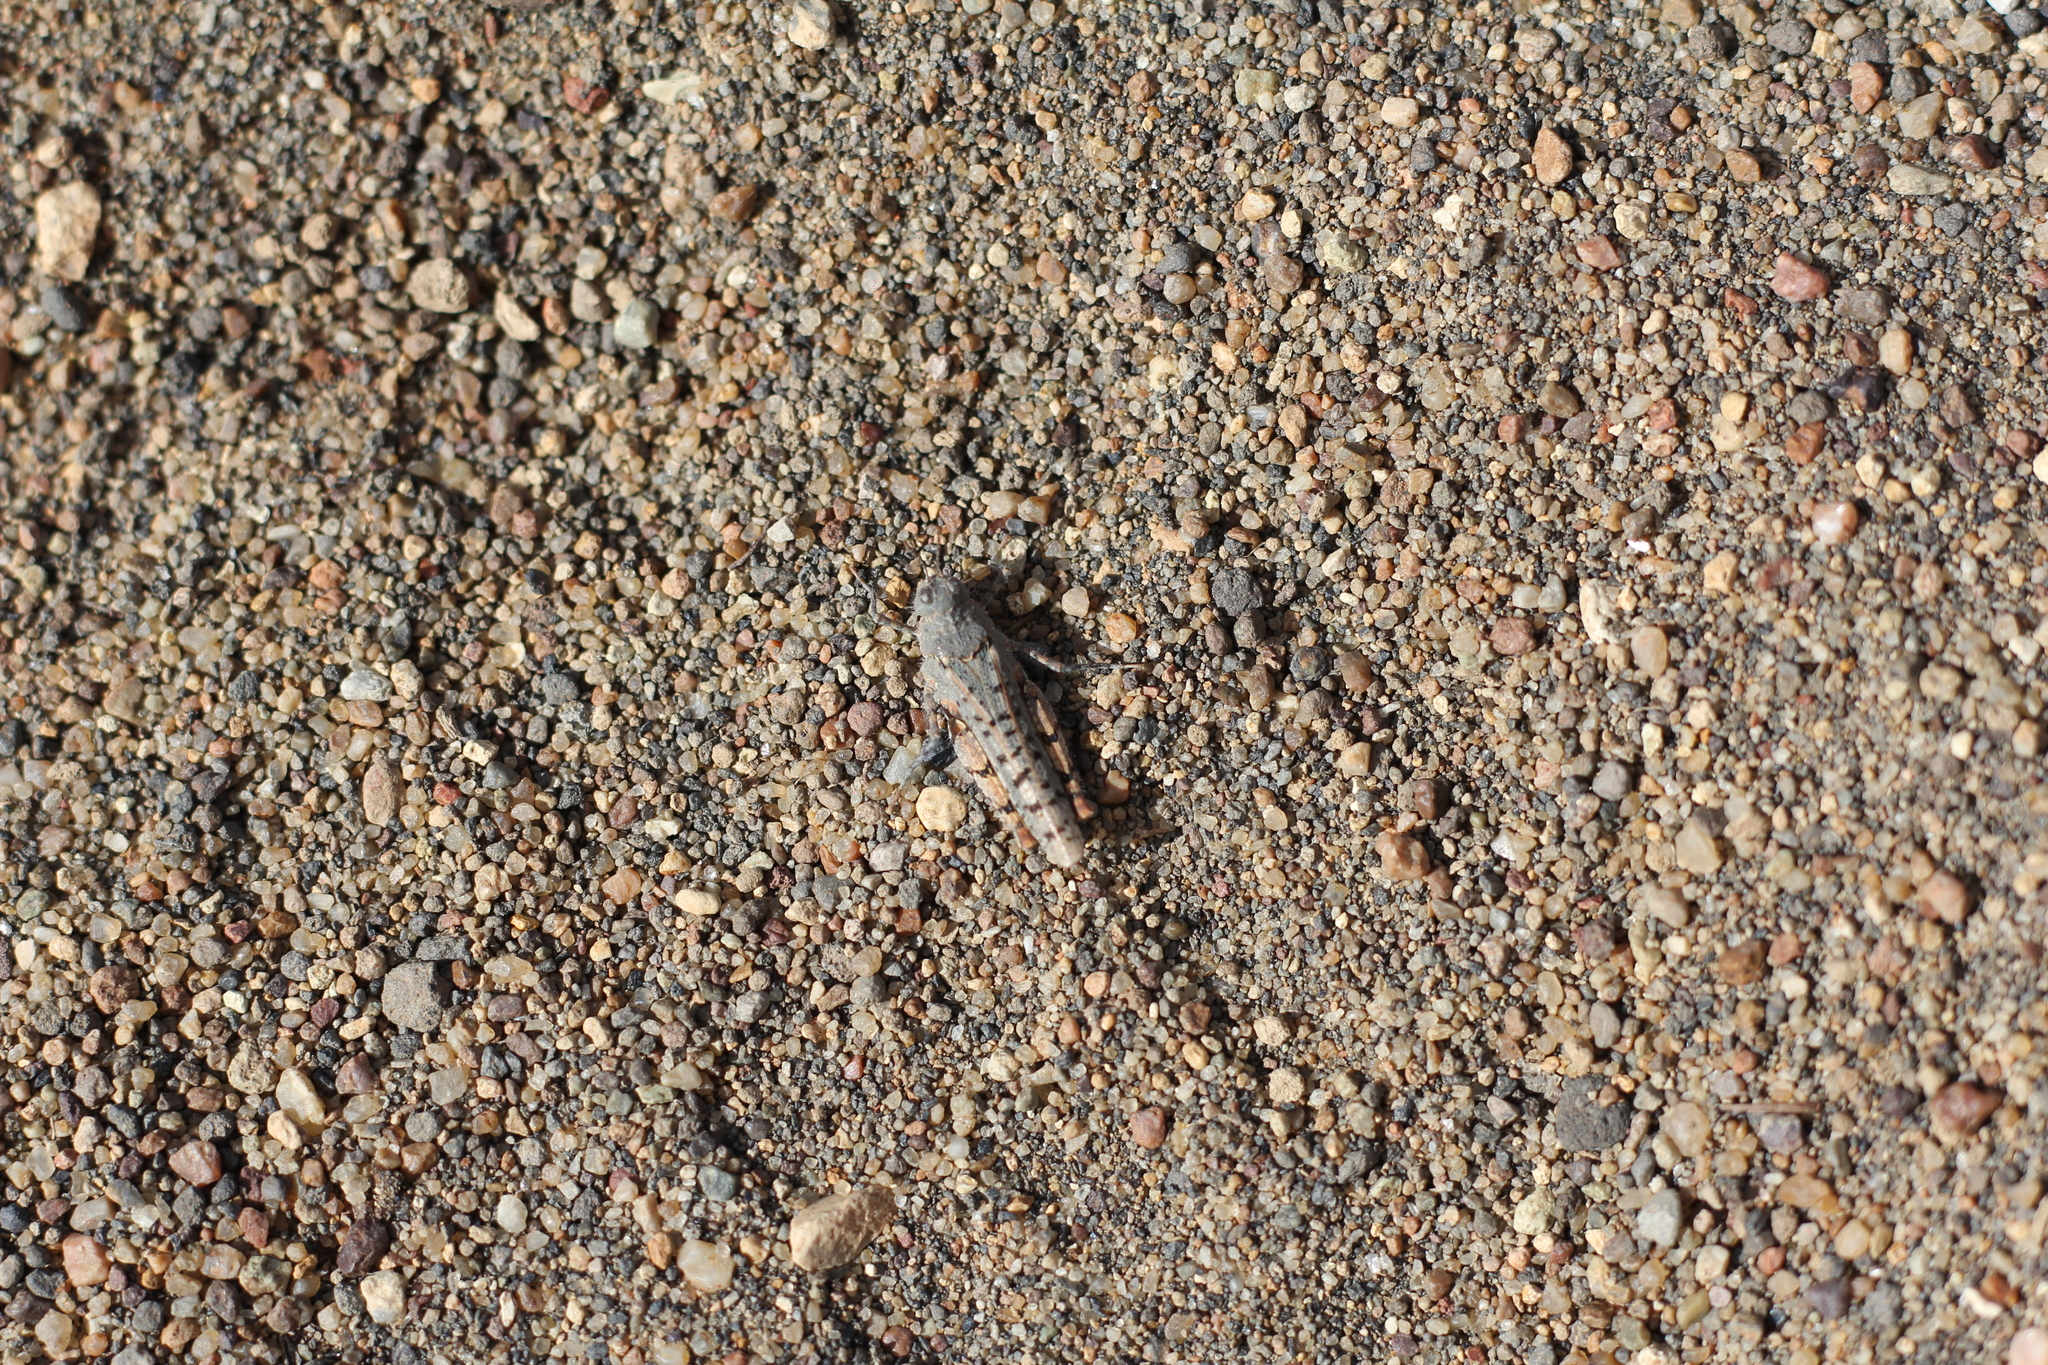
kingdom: Animalia
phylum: Arthropoda
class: Insecta
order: Orthoptera
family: Ommexechidae
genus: Tetrixocephalus
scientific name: Tetrixocephalus willemsei
